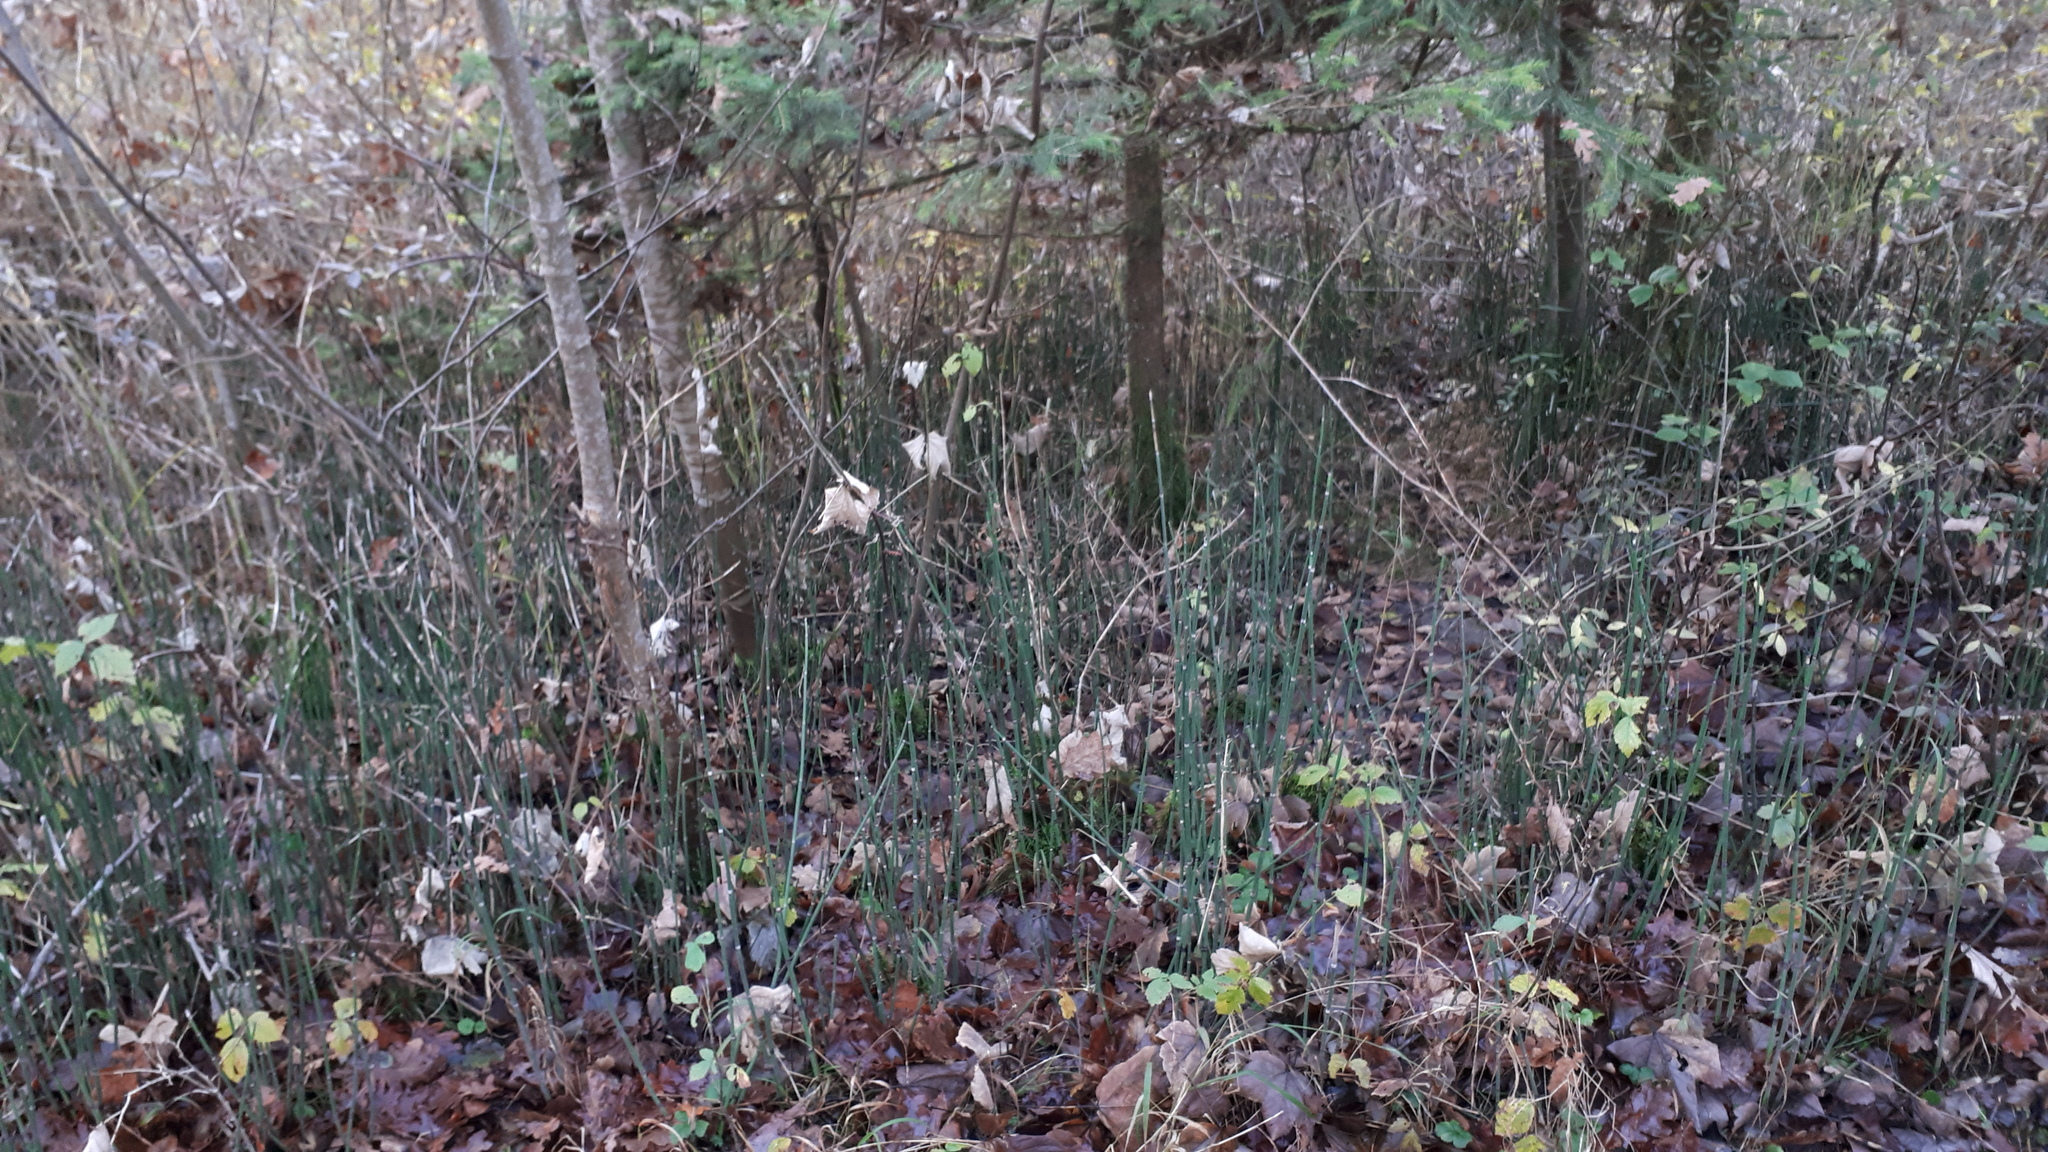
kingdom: Plantae
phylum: Tracheophyta
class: Polypodiopsida
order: Equisetales
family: Equisetaceae
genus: Equisetum
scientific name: Equisetum hyemale
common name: Rough horsetail
